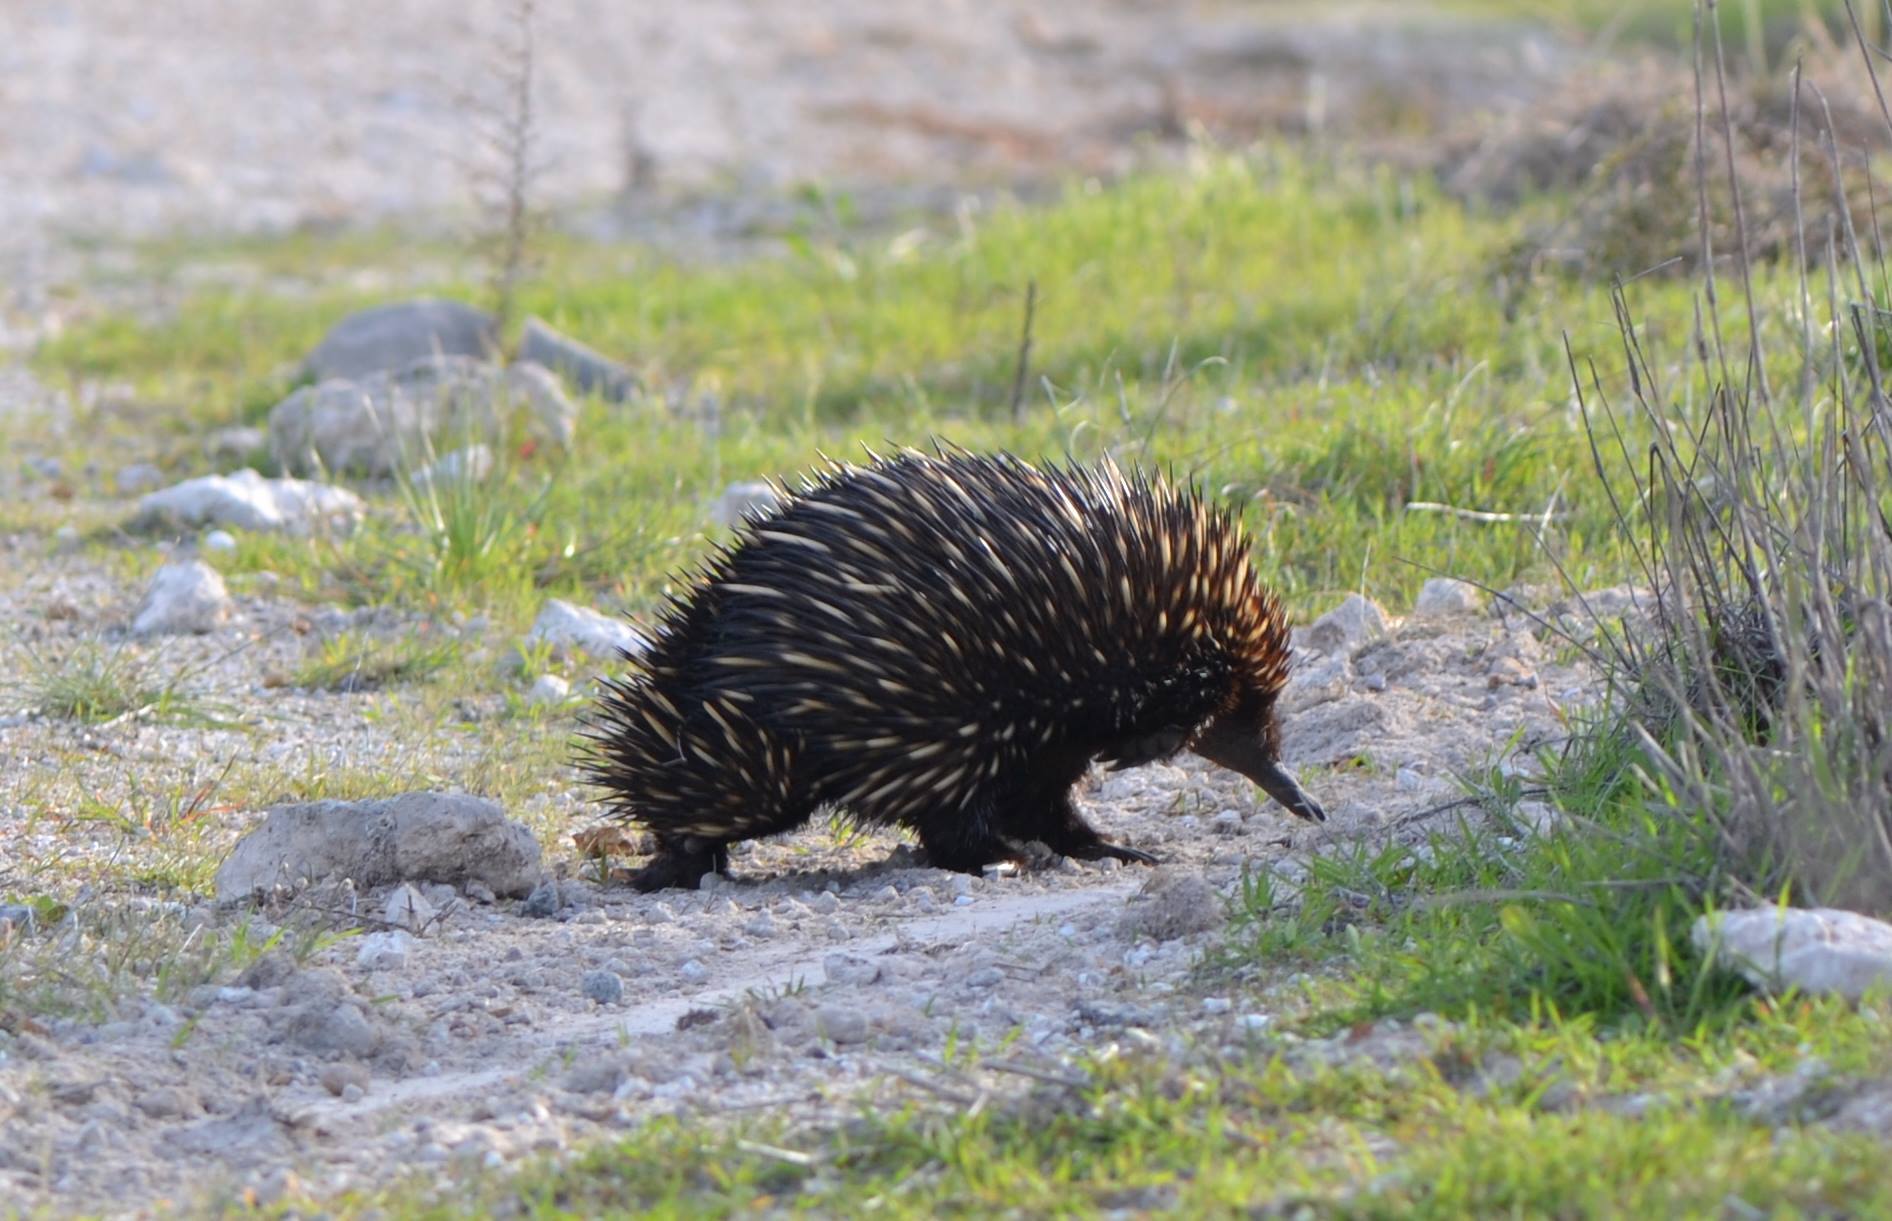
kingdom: Animalia
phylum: Chordata
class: Mammalia
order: Monotremata
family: Tachyglossidae
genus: Tachyglossus
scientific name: Tachyglossus aculeatus
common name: Short-beaked echidna
